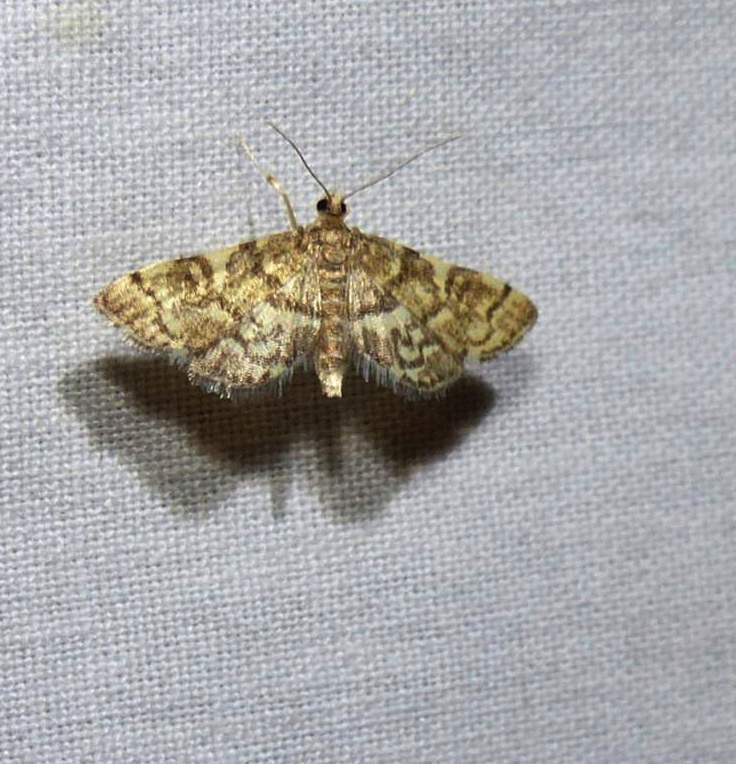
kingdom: Animalia
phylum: Arthropoda
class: Insecta
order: Lepidoptera
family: Crambidae
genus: Anageshna
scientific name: Anageshna primordialis
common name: Yellow-spotted webworm moth
